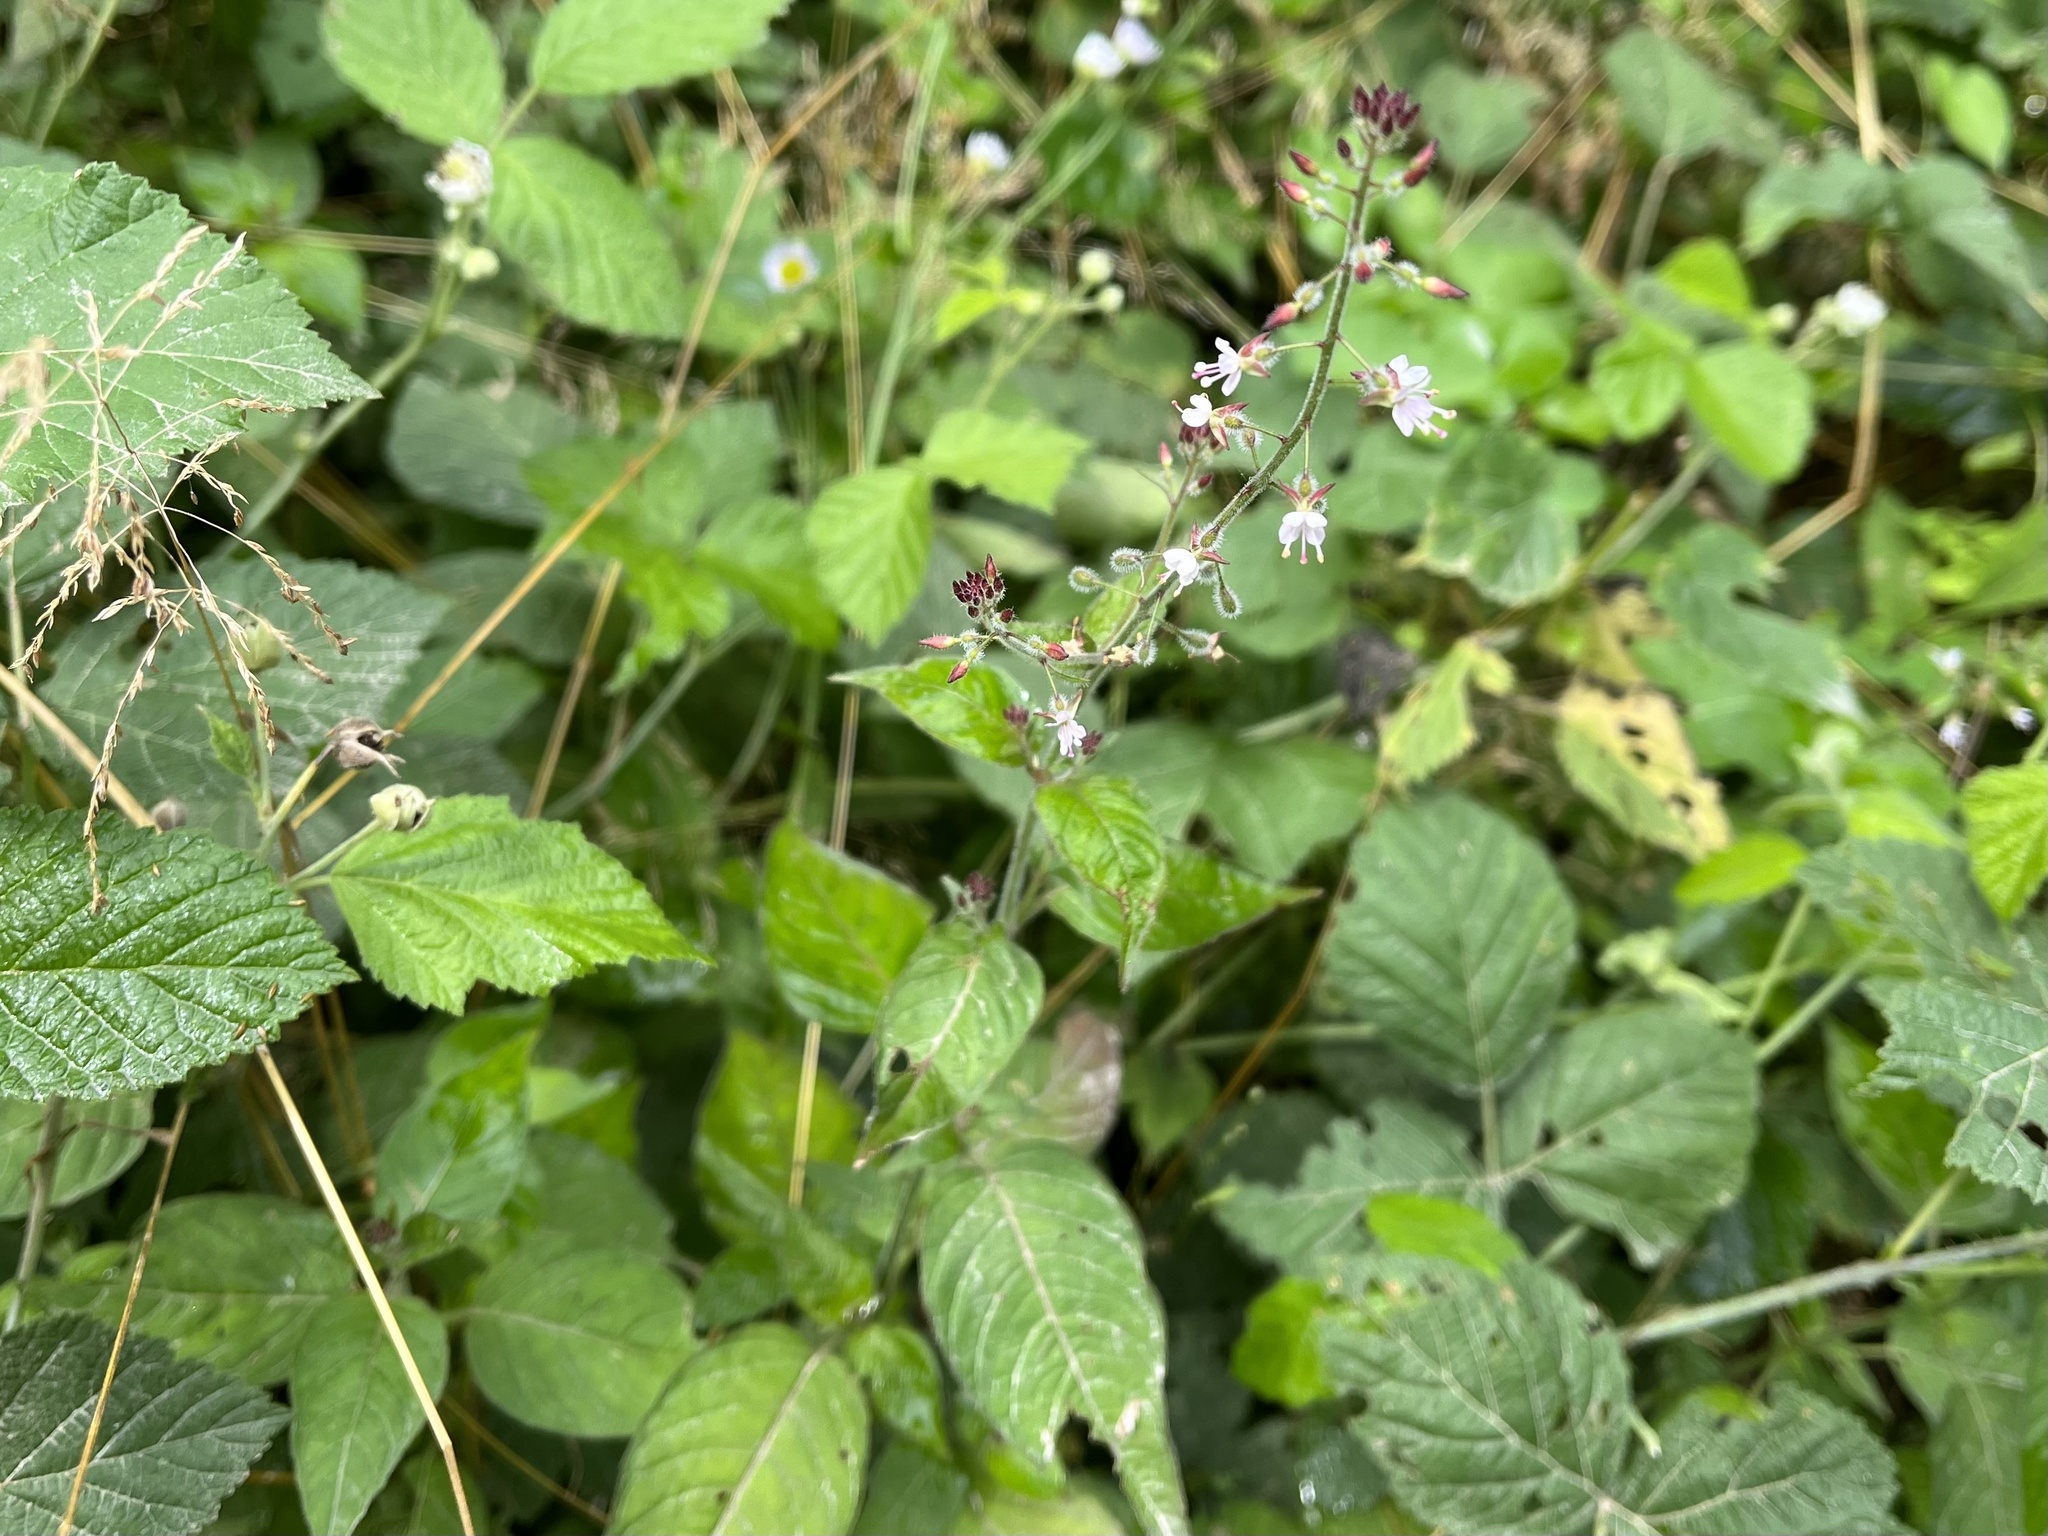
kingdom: Plantae
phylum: Tracheophyta
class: Magnoliopsida
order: Myrtales
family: Onagraceae
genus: Circaea
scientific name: Circaea lutetiana
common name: Enchanter's-nightshade
